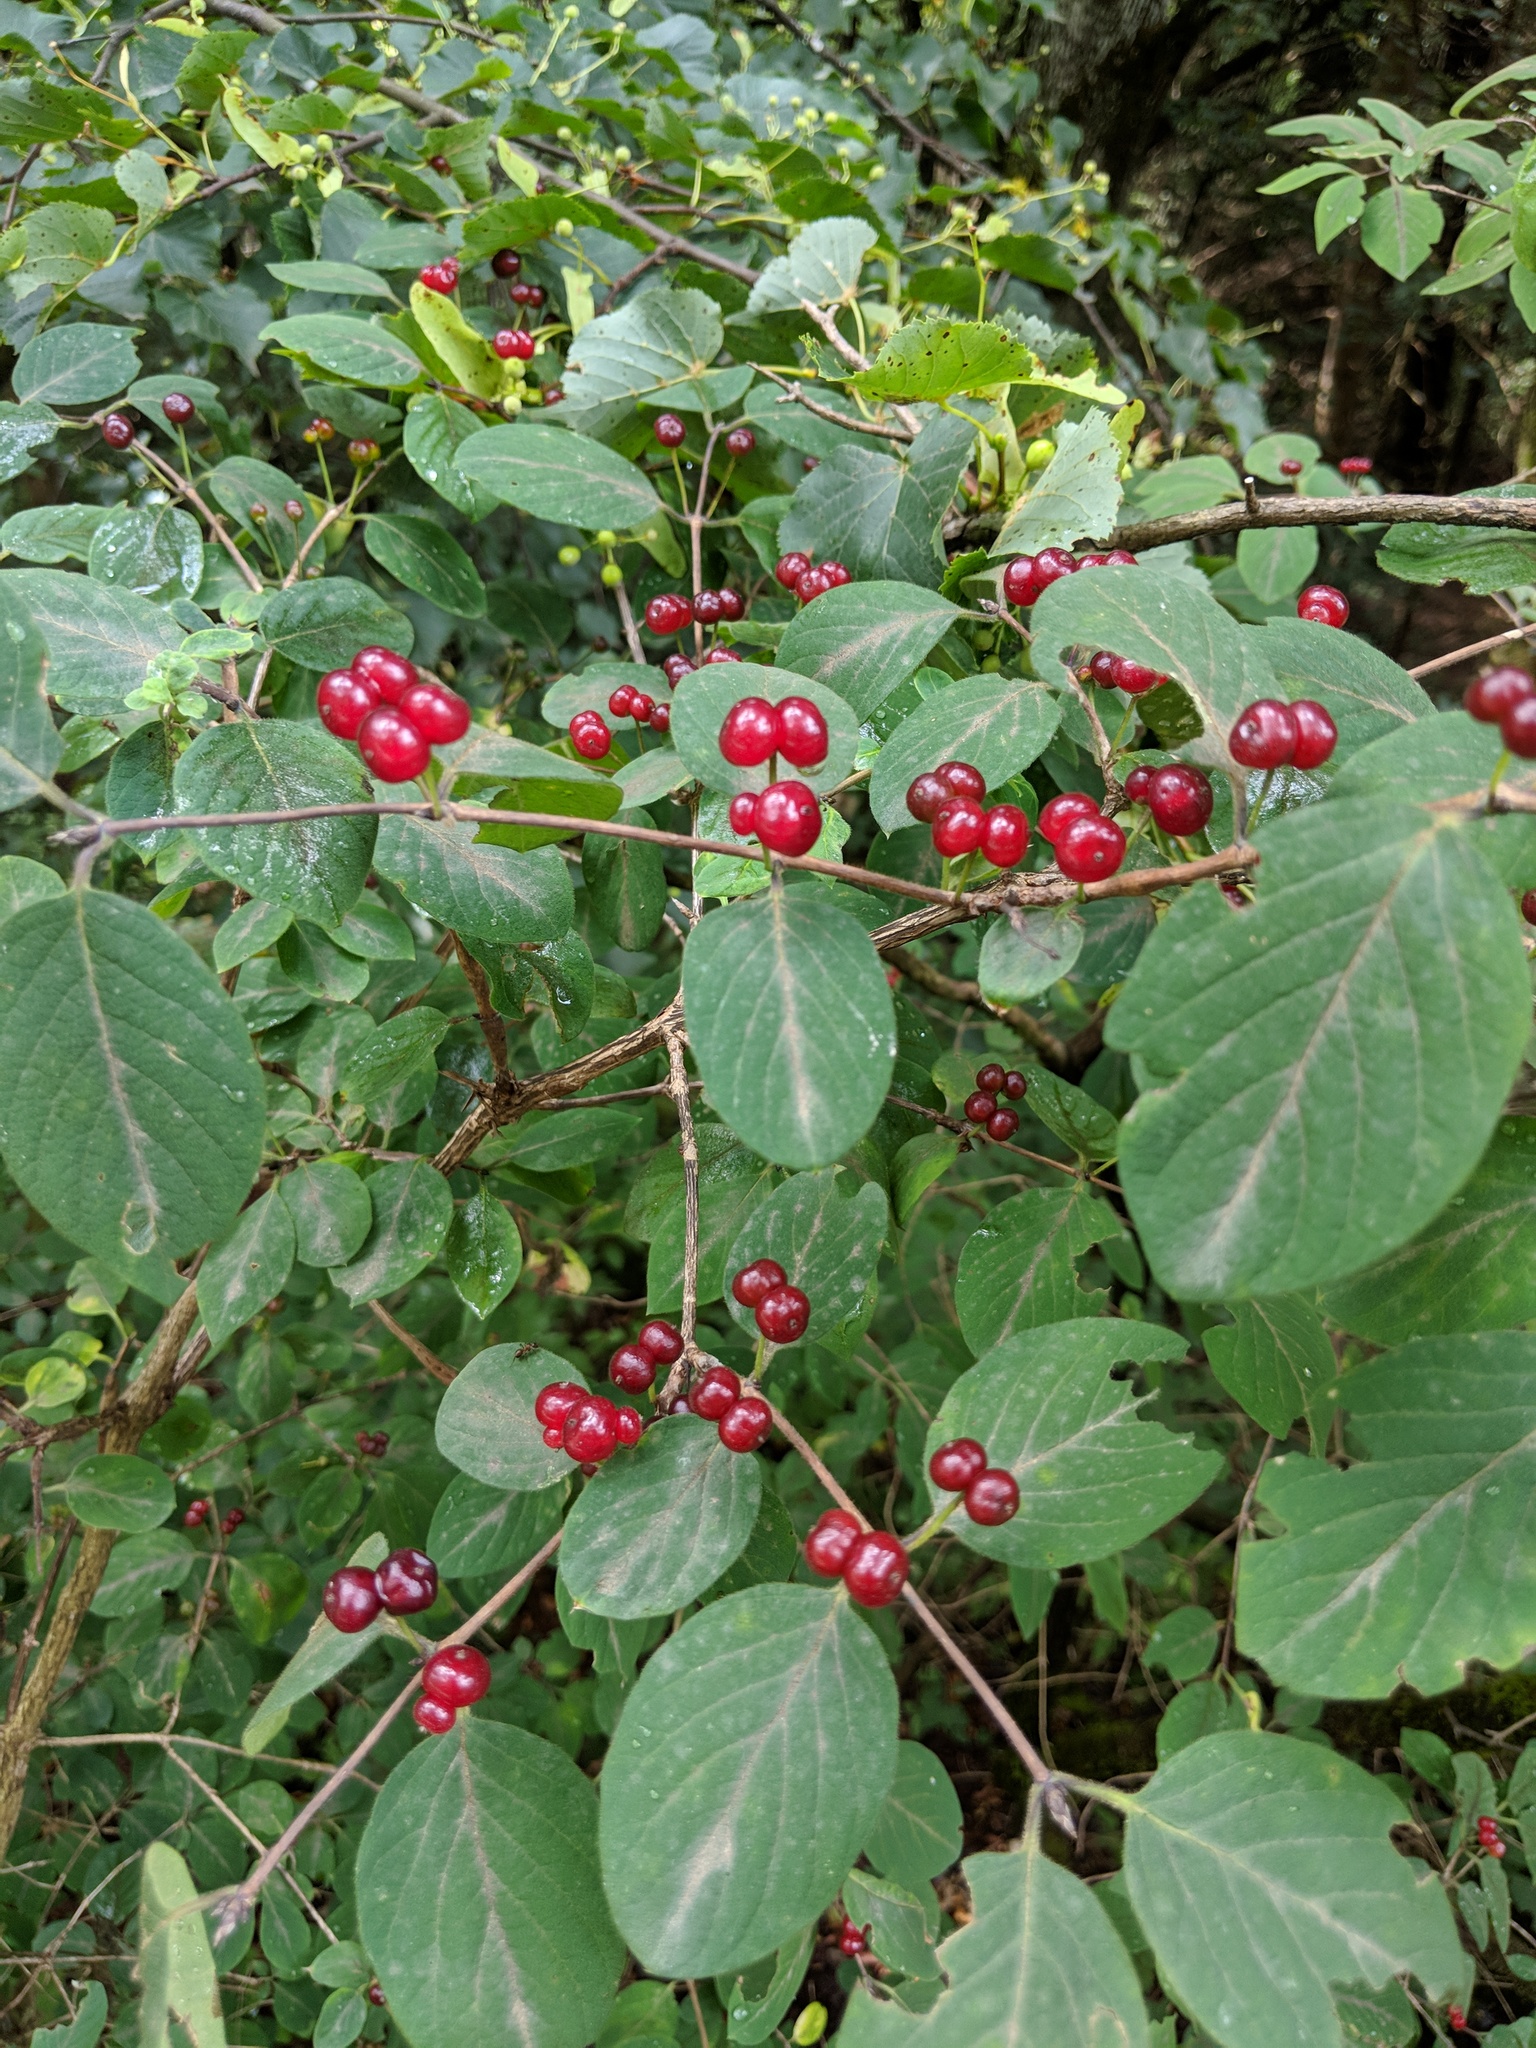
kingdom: Plantae
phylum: Tracheophyta
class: Magnoliopsida
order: Dipsacales
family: Caprifoliaceae
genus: Lonicera
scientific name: Lonicera xylosteum
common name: Fly honeysuckle
